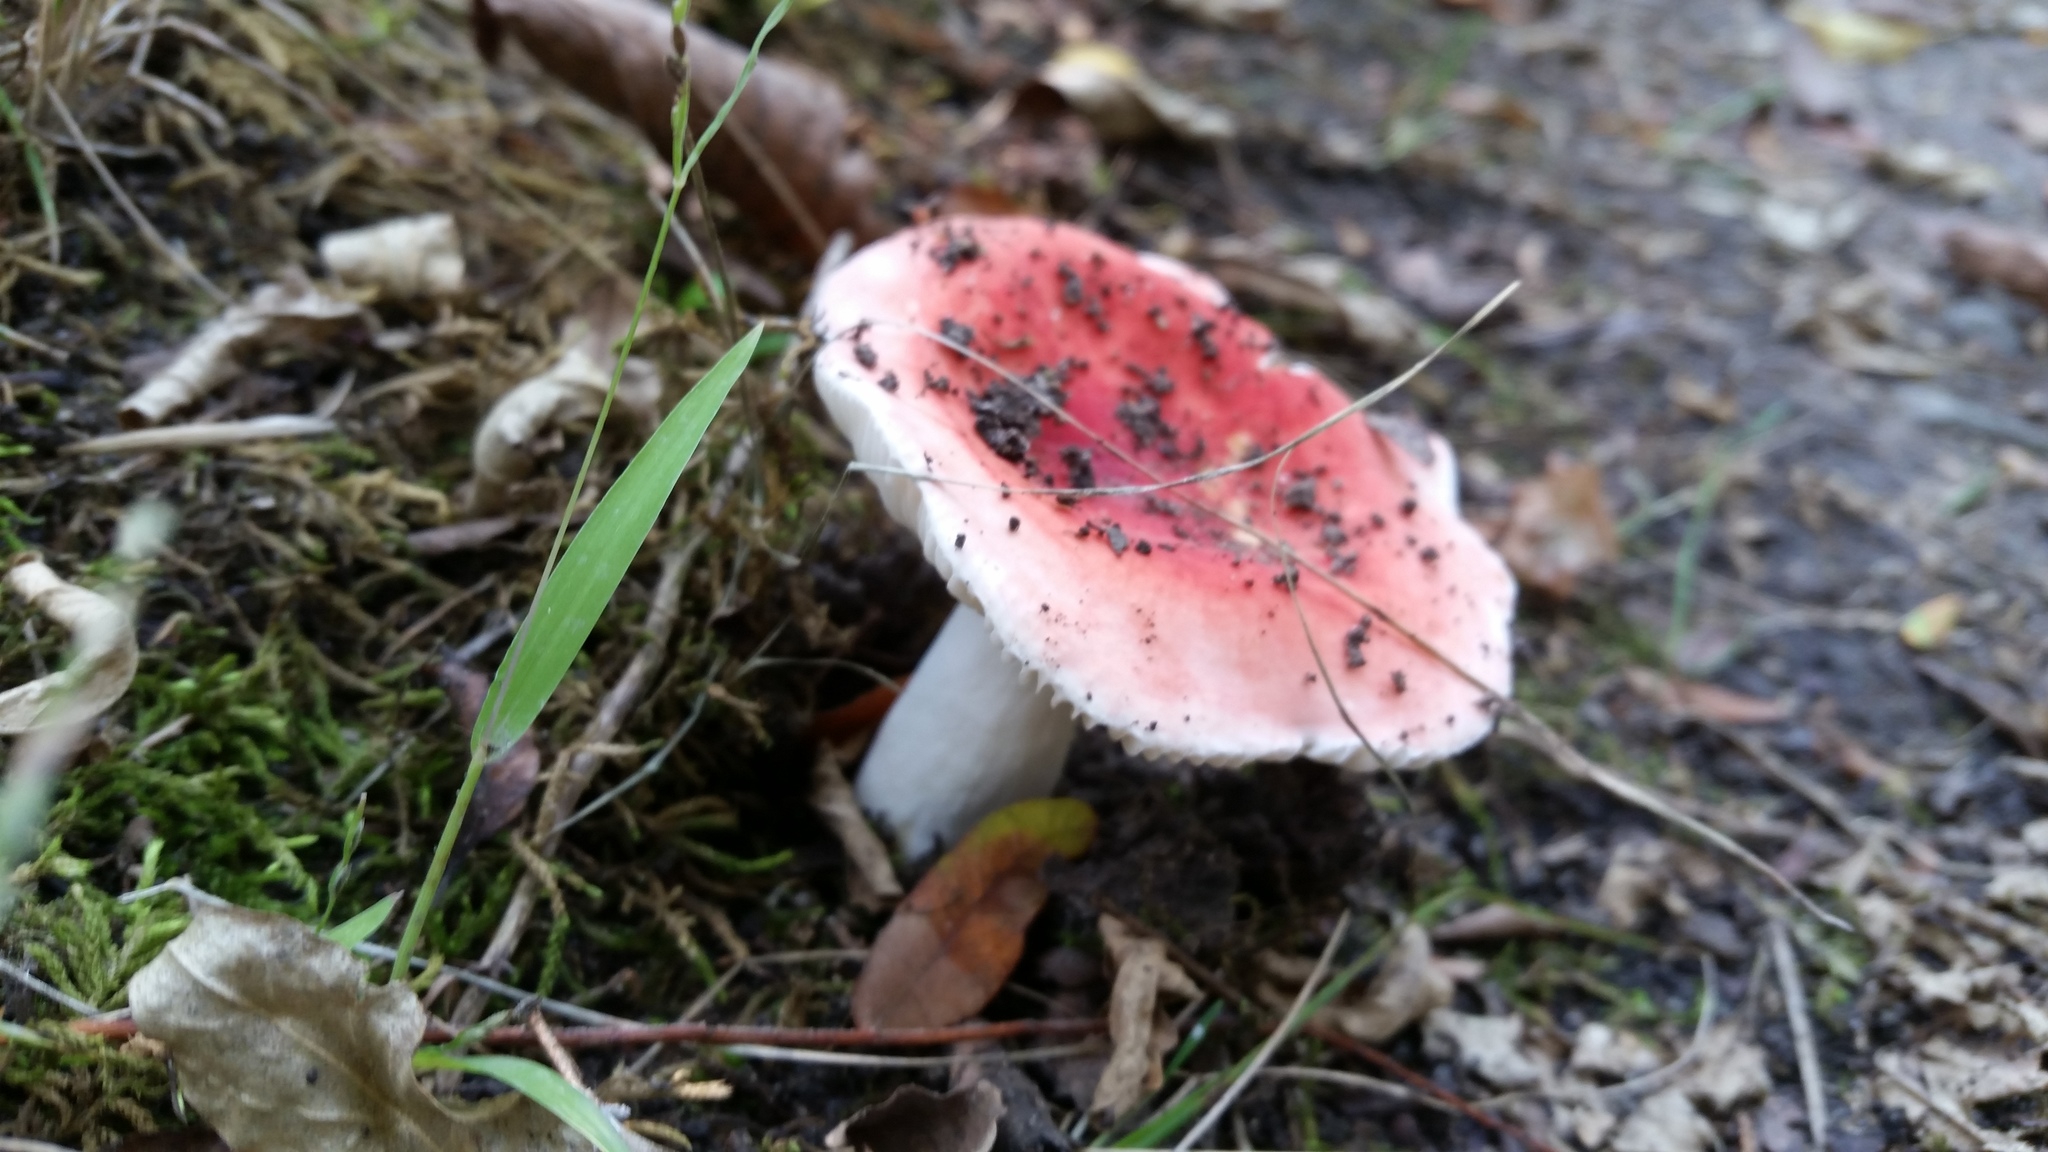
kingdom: Fungi
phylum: Basidiomycota
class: Agaricomycetes
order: Russulales
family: Russulaceae
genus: Russula
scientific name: Russula
